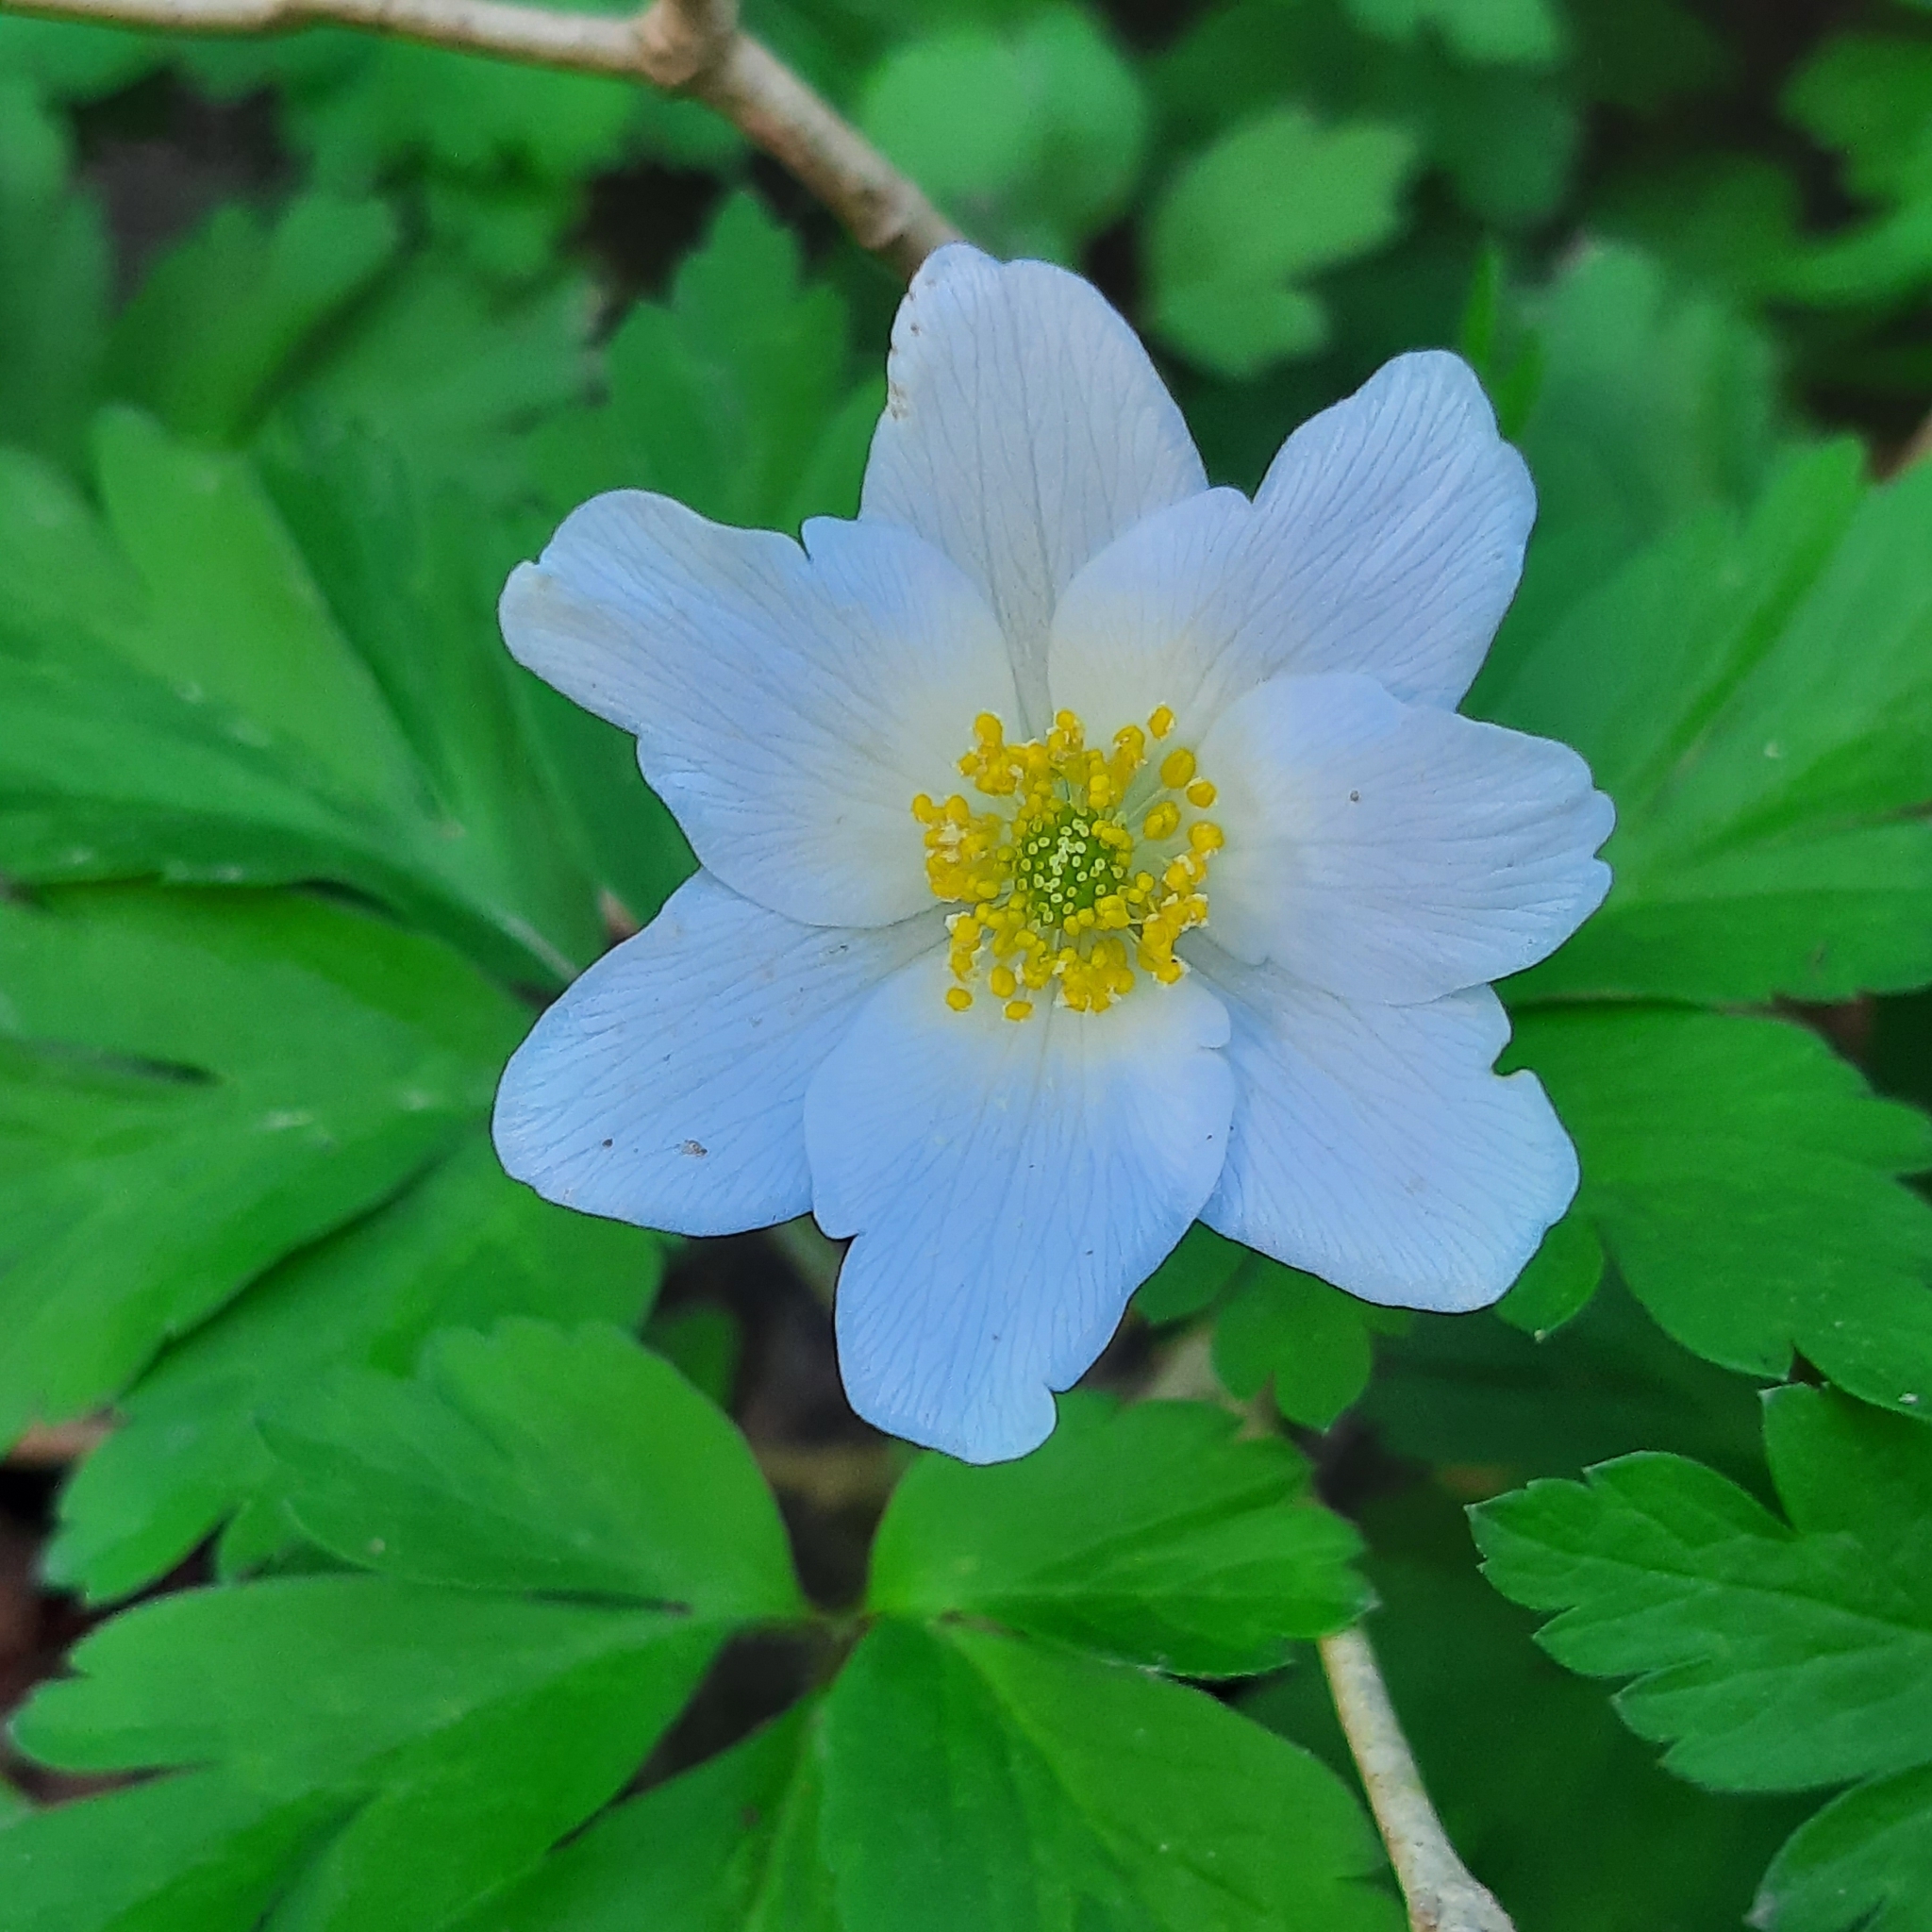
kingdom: Plantae
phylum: Tracheophyta
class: Magnoliopsida
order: Ranunculales
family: Ranunculaceae
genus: Anemone
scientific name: Anemone nemorosa
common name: Wood anemone
